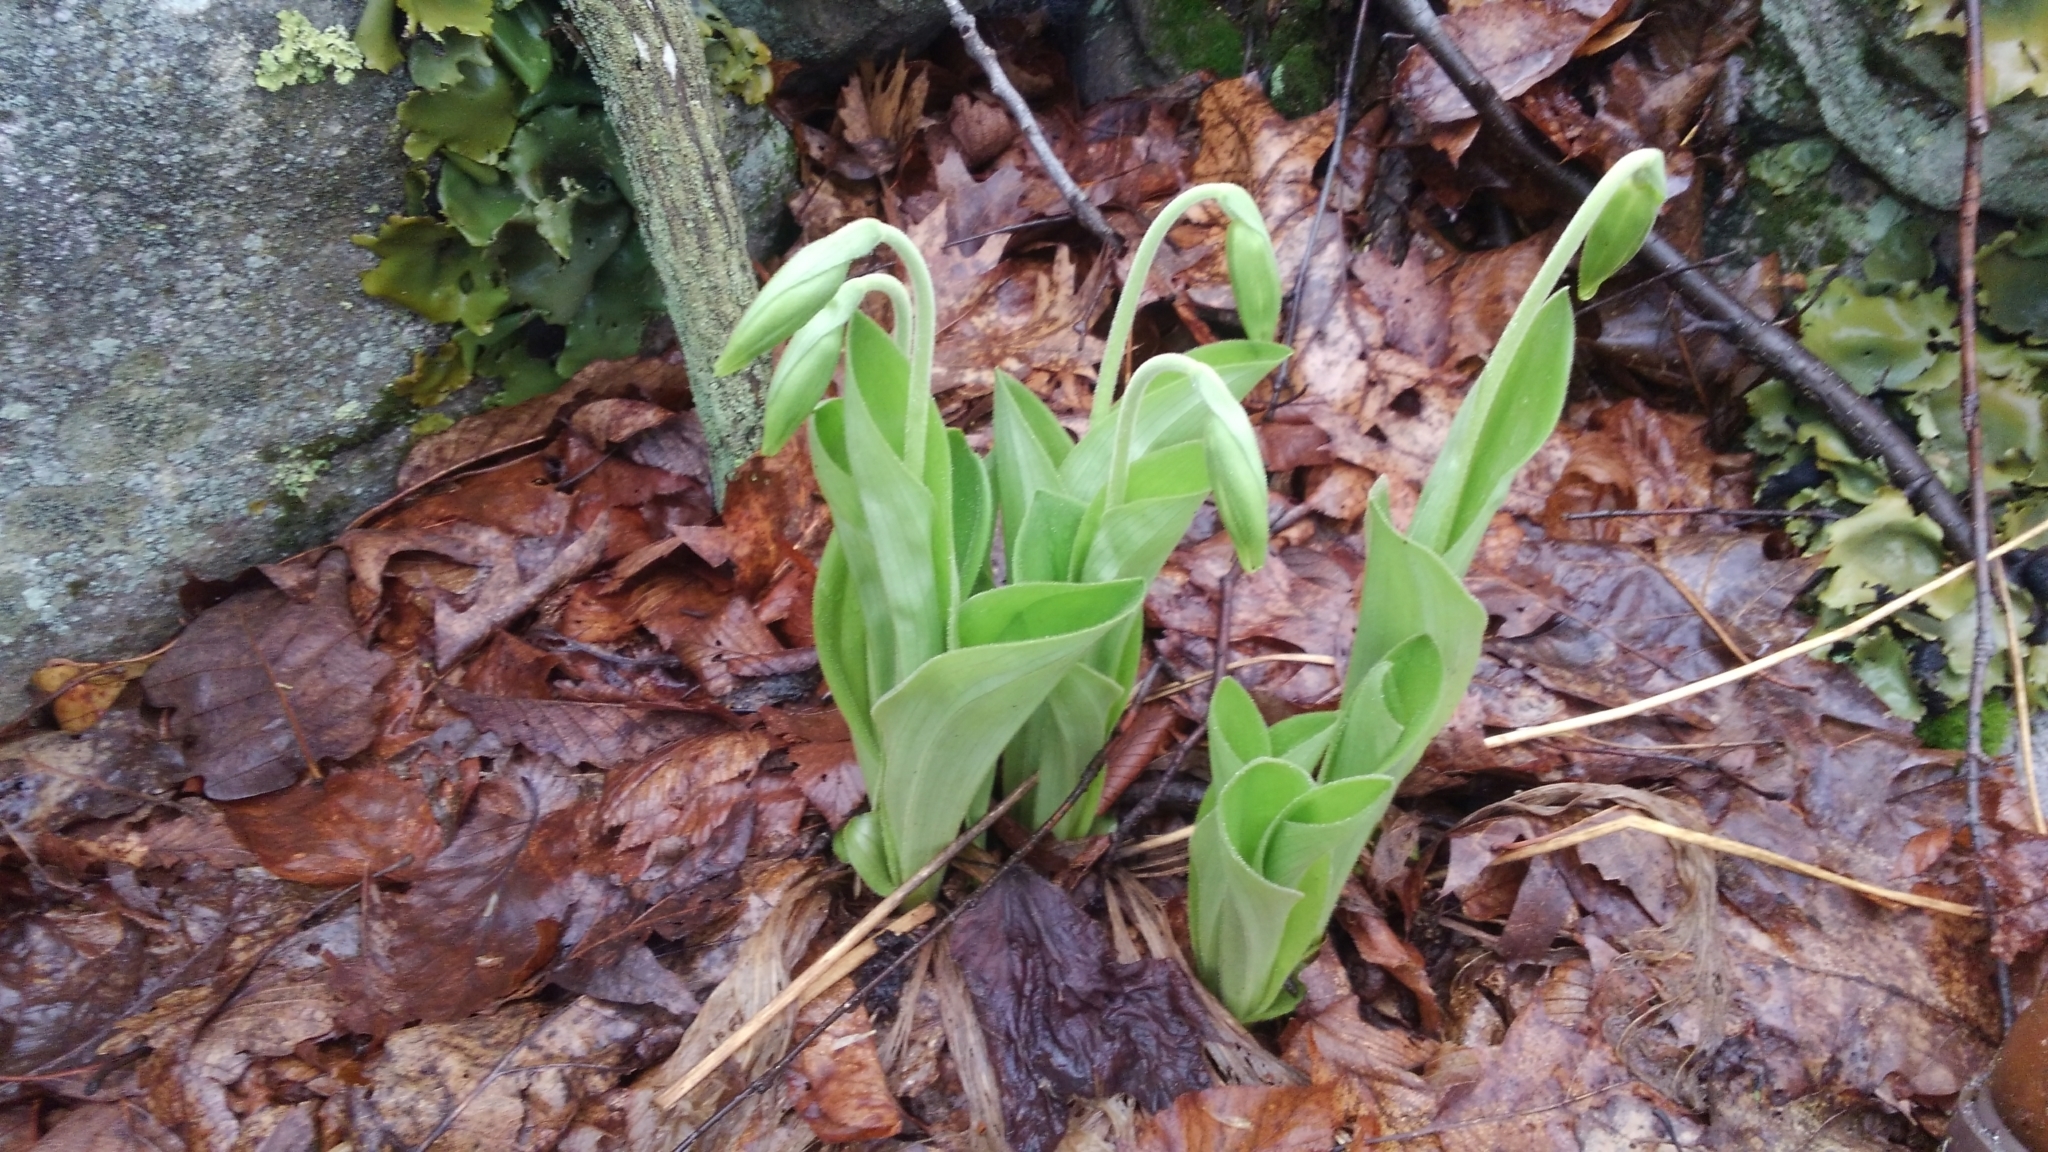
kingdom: Plantae
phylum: Tracheophyta
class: Liliopsida
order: Asparagales
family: Orchidaceae
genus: Cypripedium
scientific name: Cypripedium acaule
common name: Pink lady's-slipper
